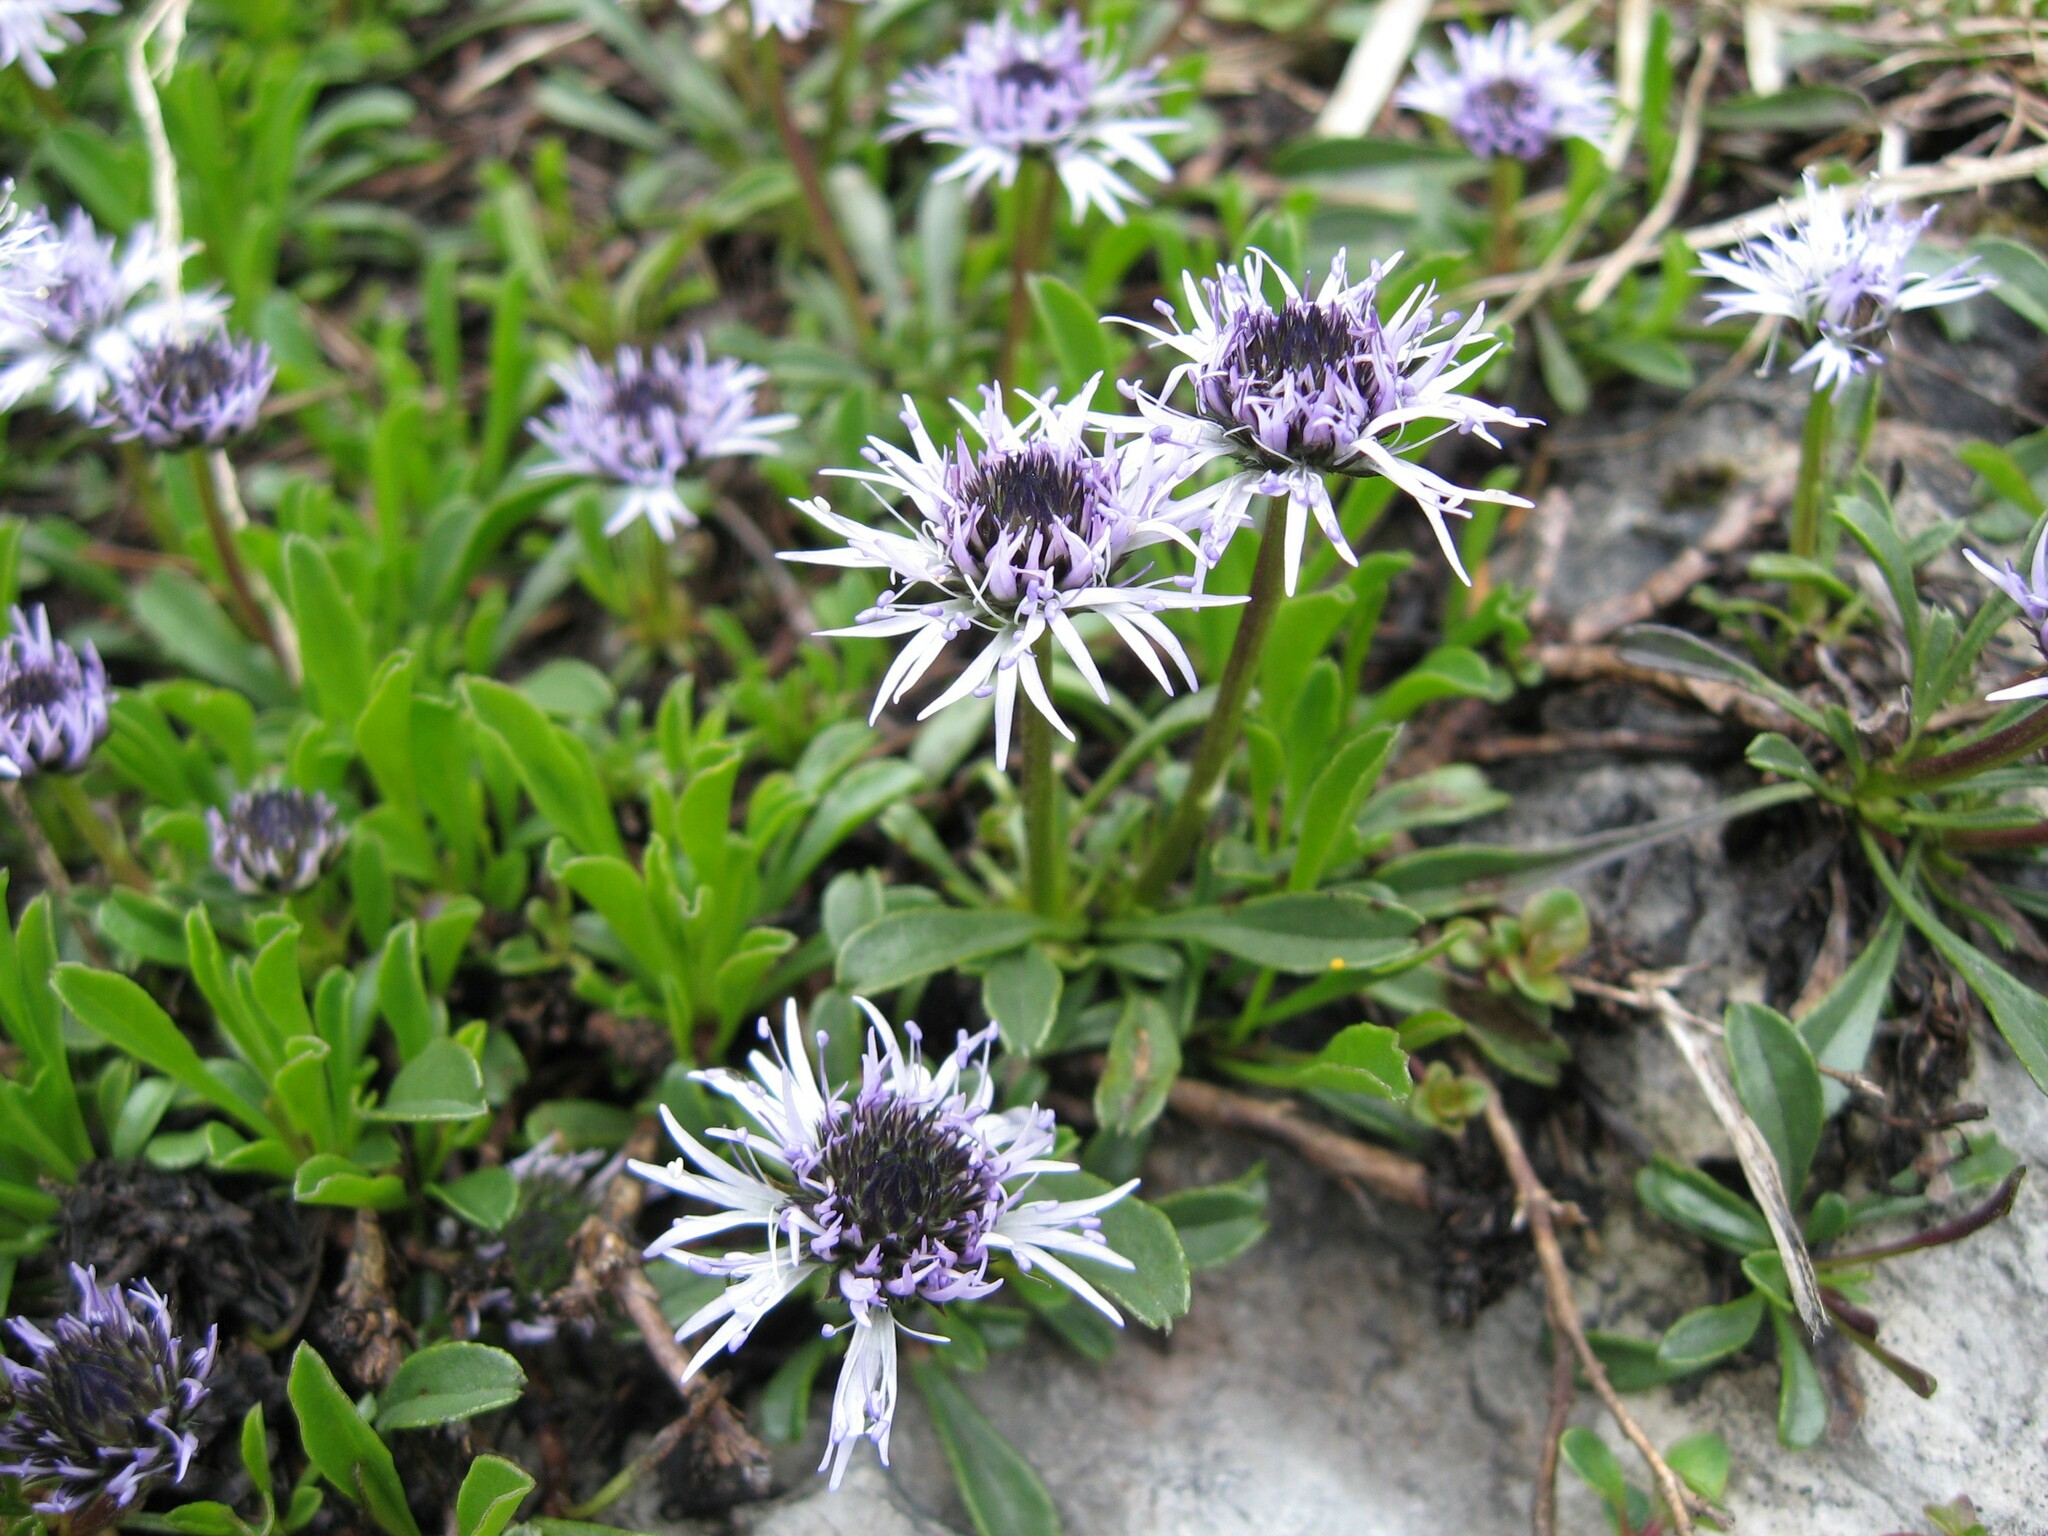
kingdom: Plantae
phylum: Tracheophyta
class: Magnoliopsida
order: Lamiales
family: Plantaginaceae
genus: Globularia
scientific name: Globularia cordifolia
